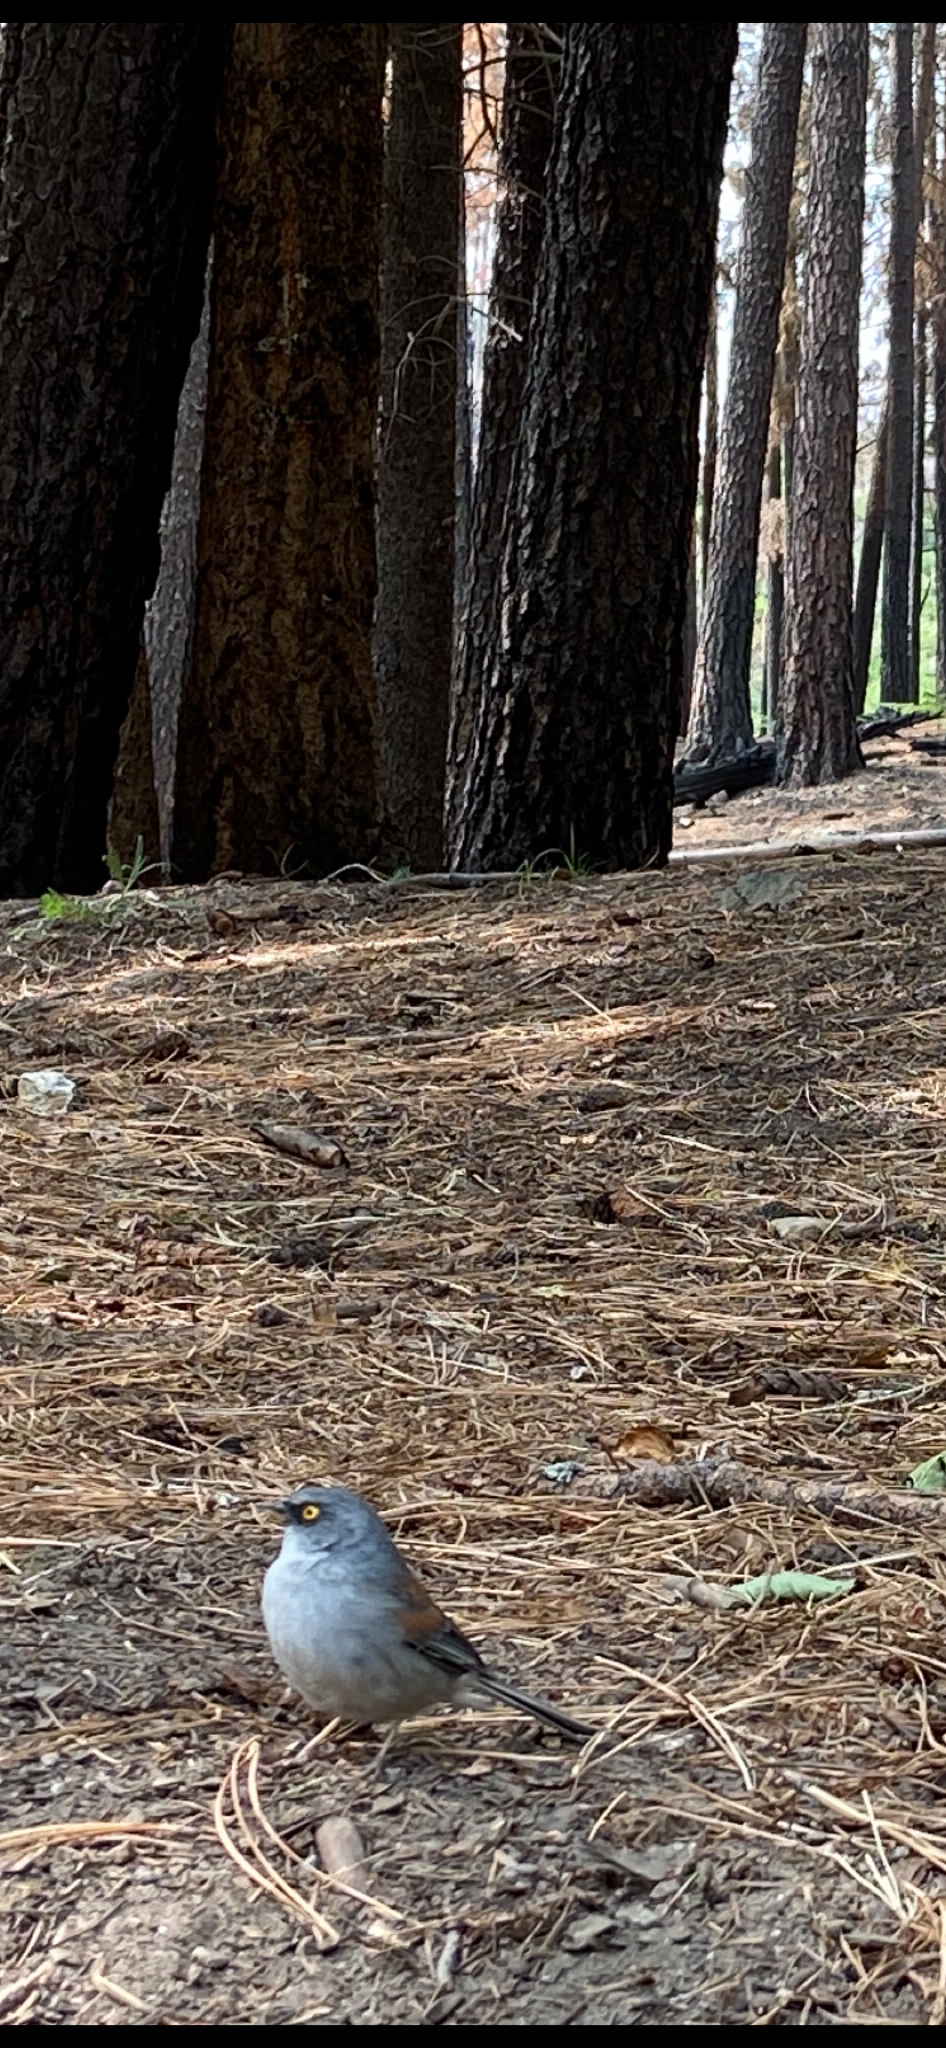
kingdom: Animalia
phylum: Chordata
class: Aves
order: Passeriformes
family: Passerellidae
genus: Junco
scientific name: Junco phaeonotus
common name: Yellow-eyed junco
